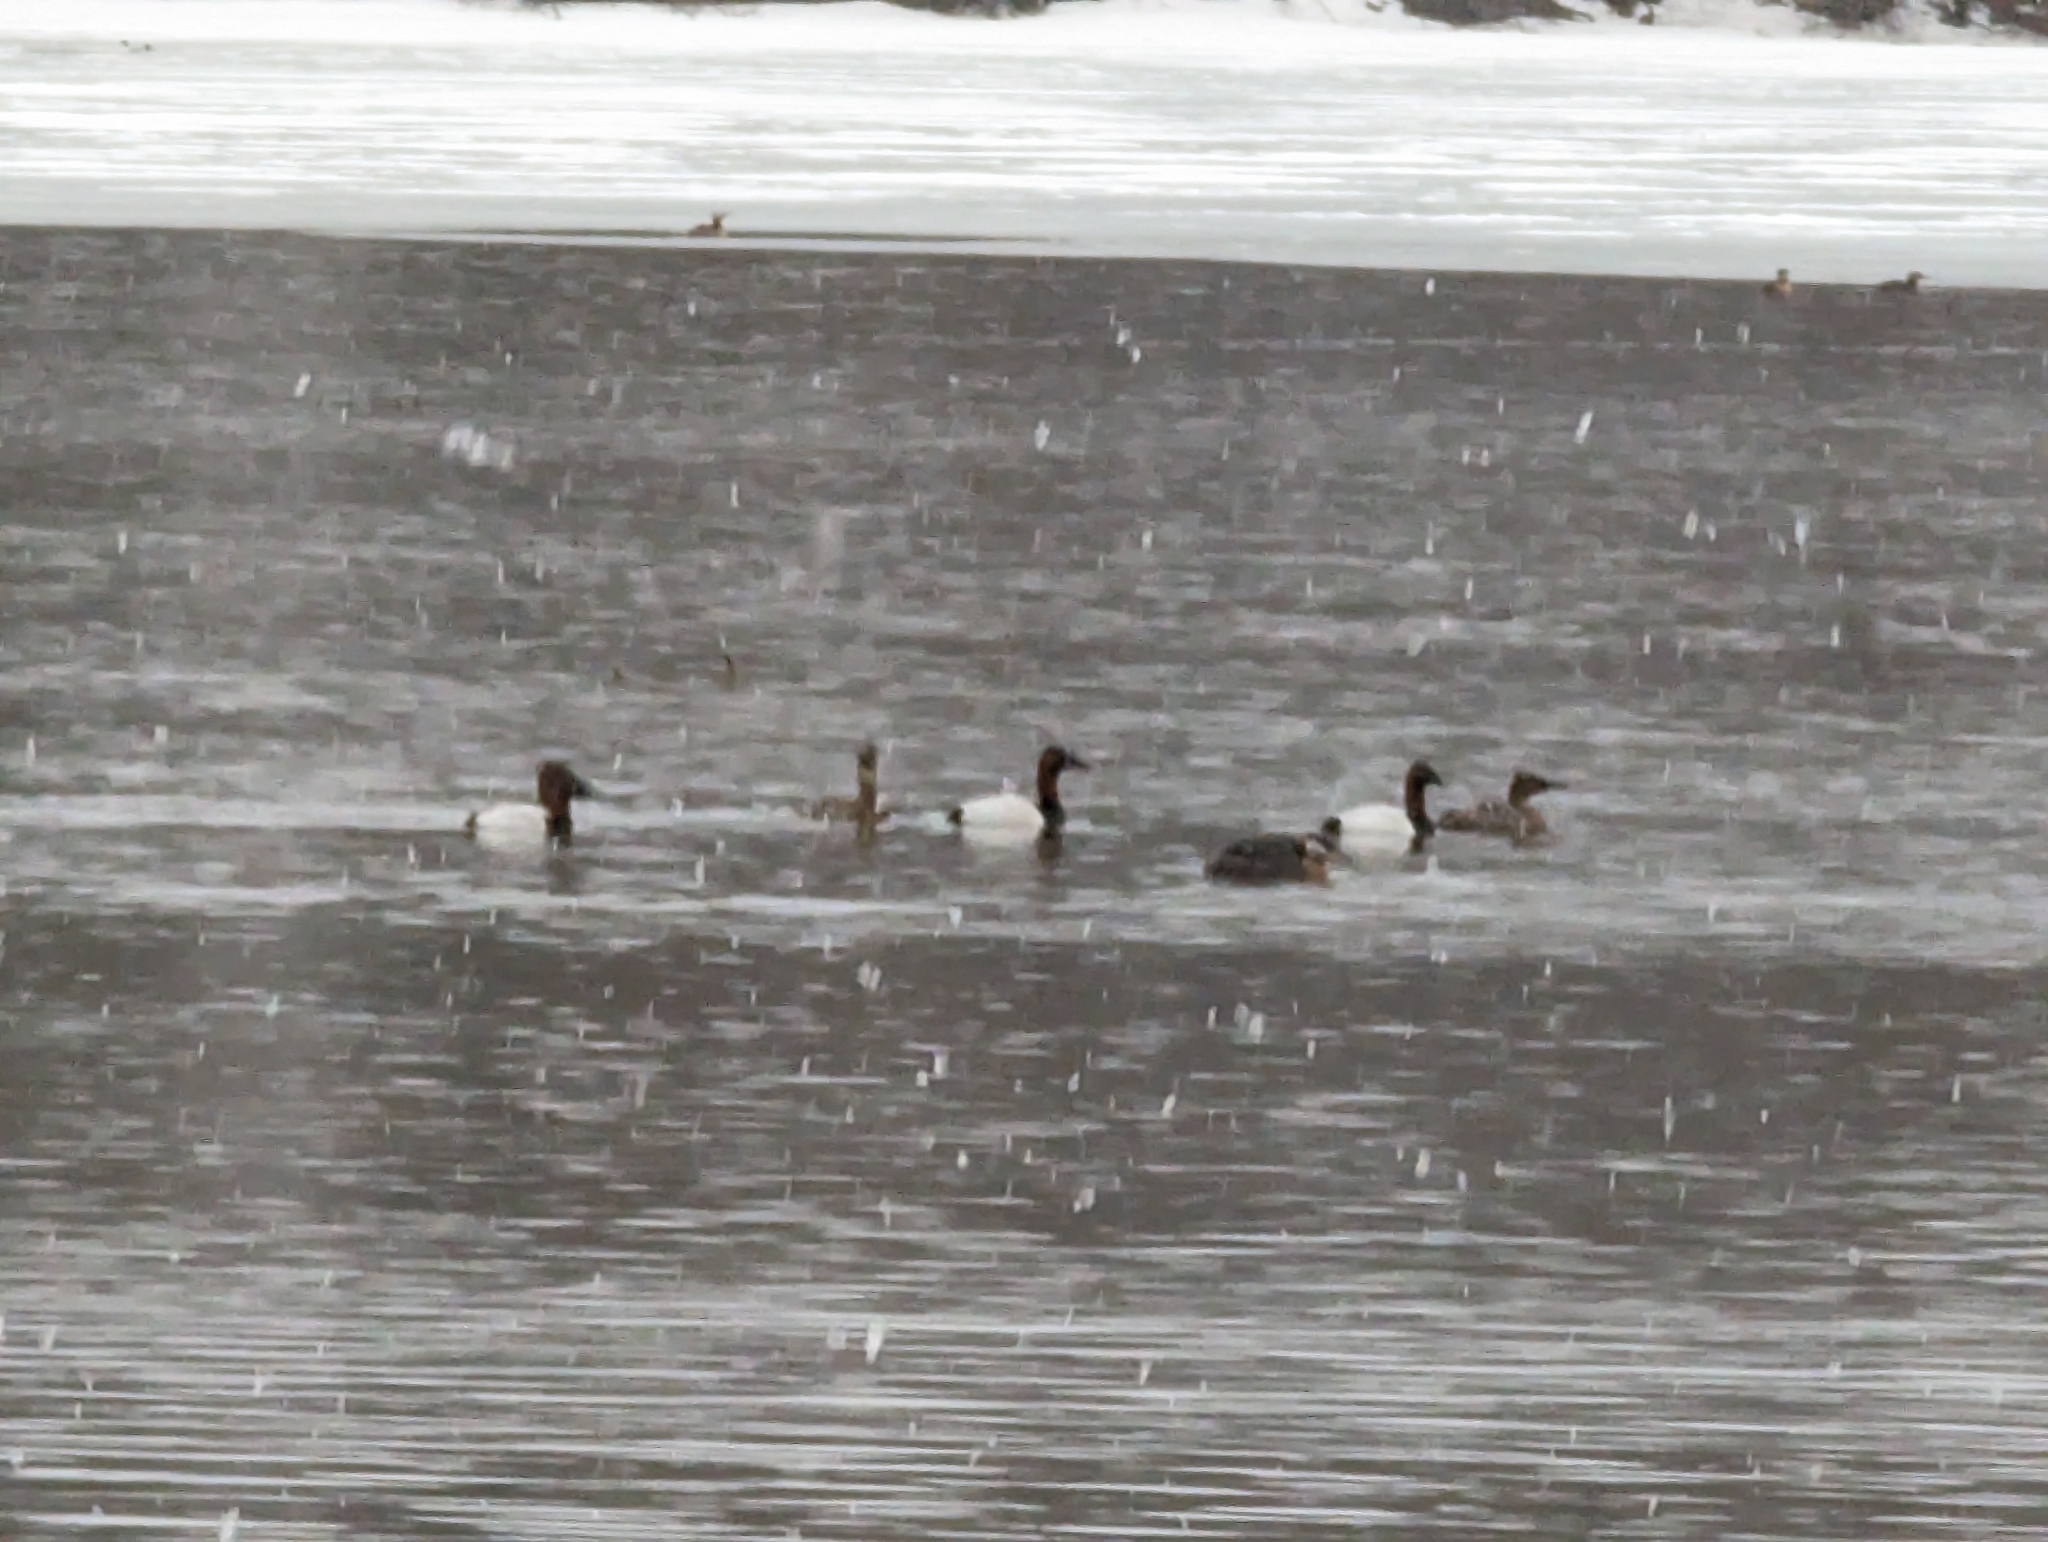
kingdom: Animalia
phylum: Chordata
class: Aves
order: Anseriformes
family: Anatidae
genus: Aythya
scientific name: Aythya valisineria
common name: Canvasback
